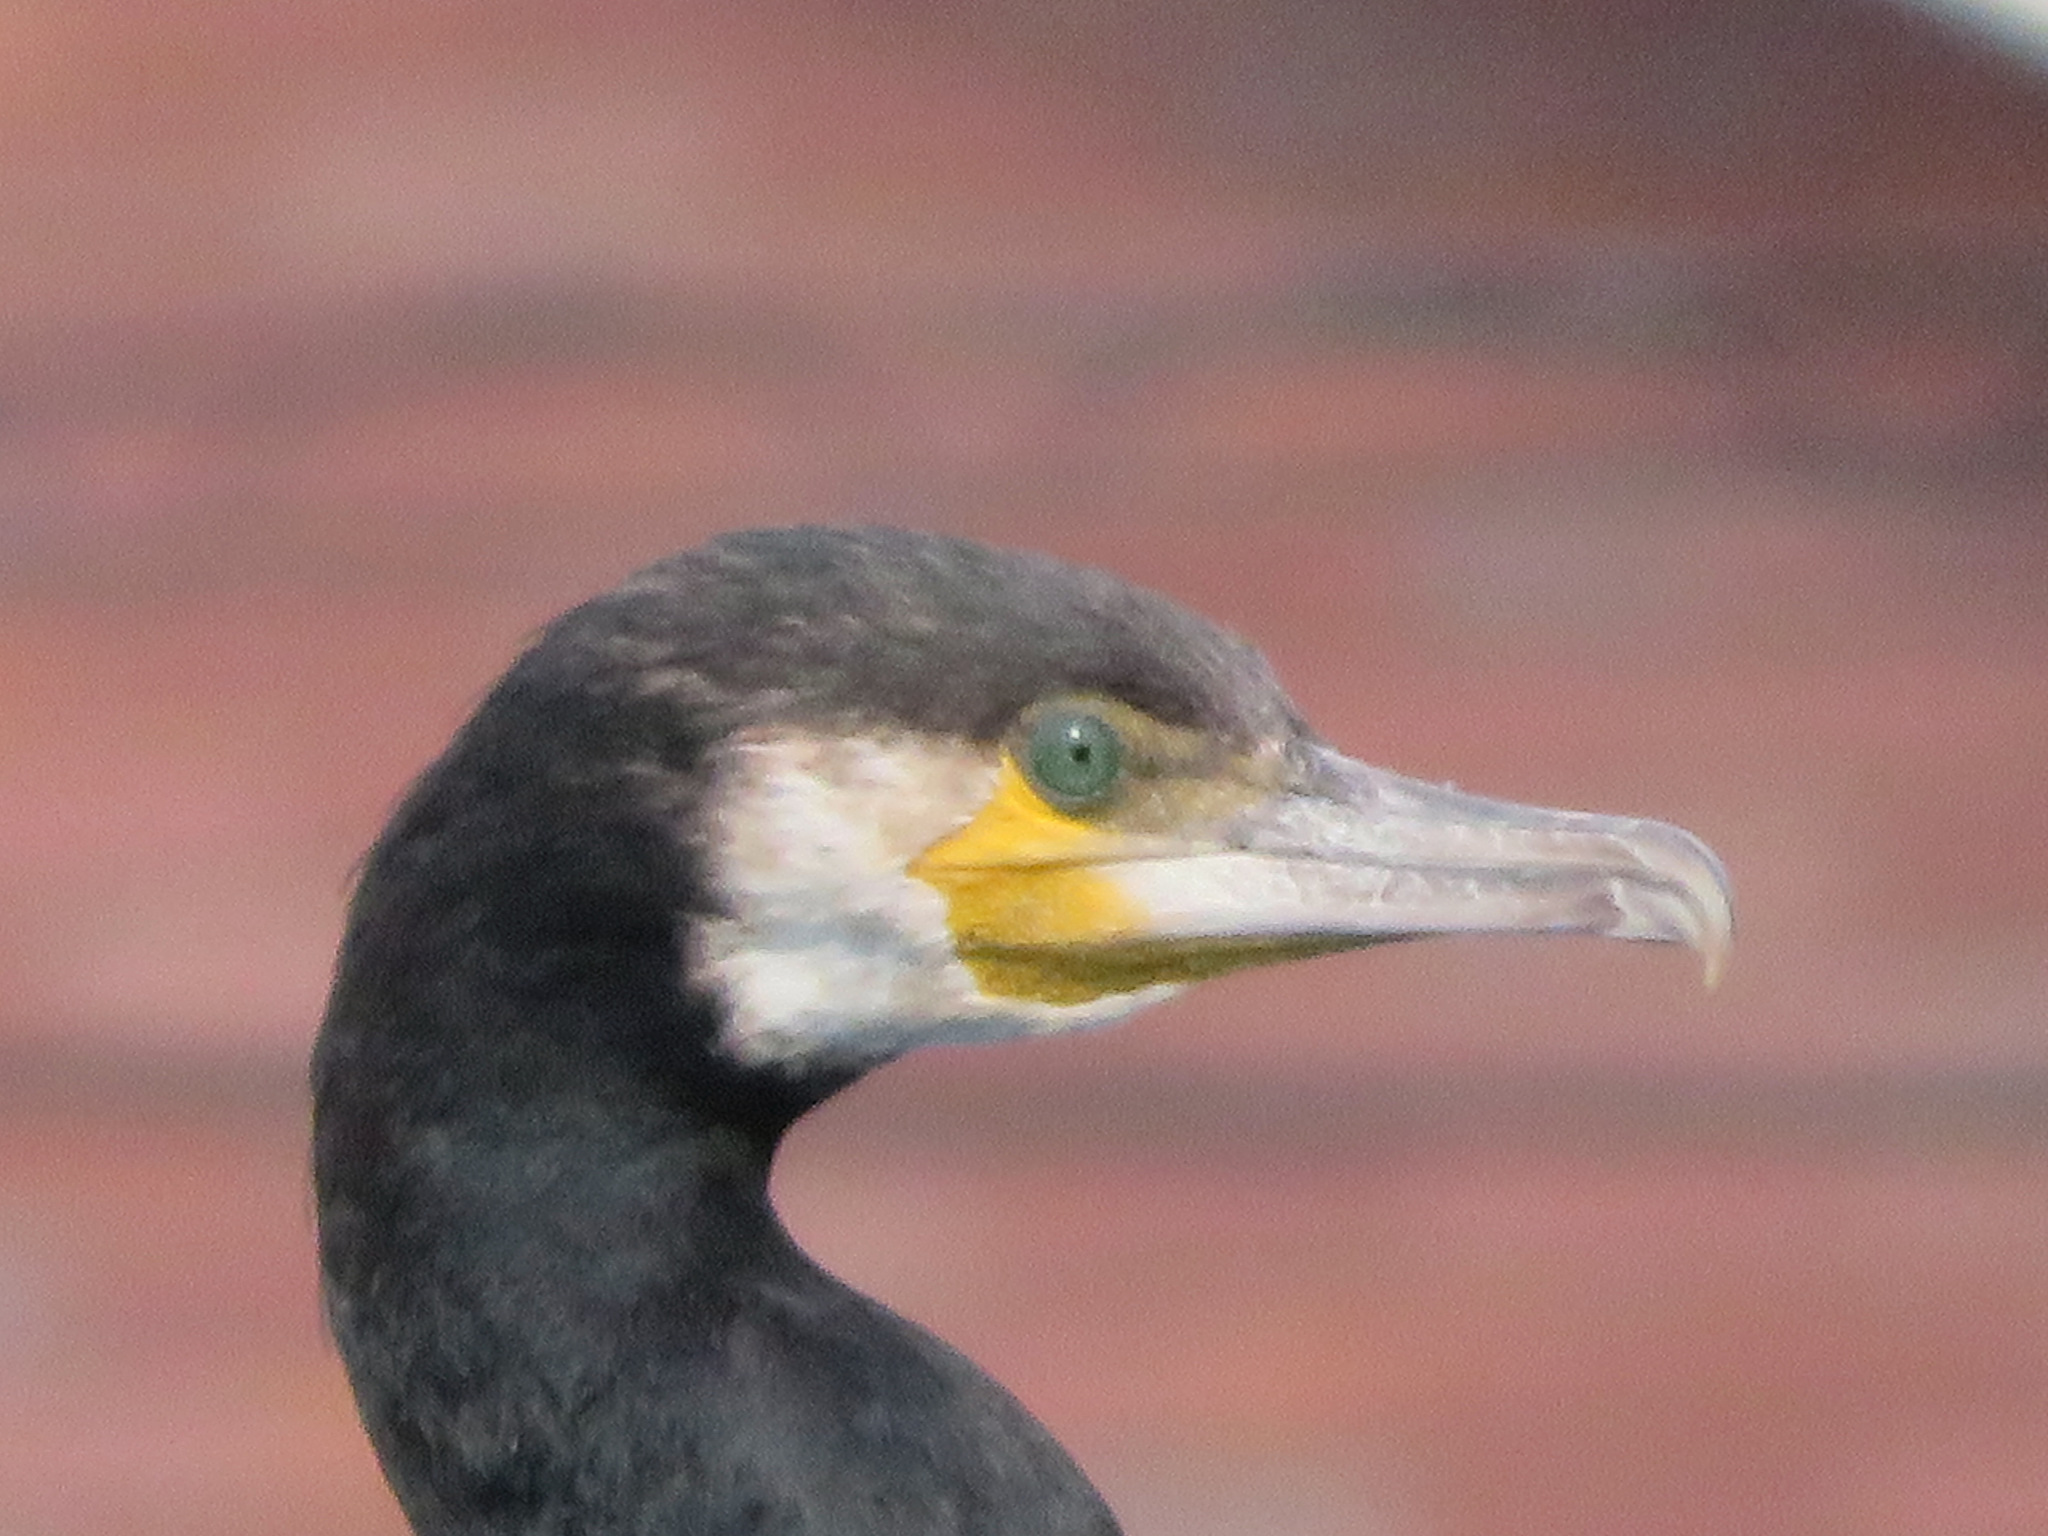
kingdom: Animalia
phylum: Chordata
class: Aves
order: Suliformes
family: Phalacrocoracidae
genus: Phalacrocorax
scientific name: Phalacrocorax carbo
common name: Great cormorant
